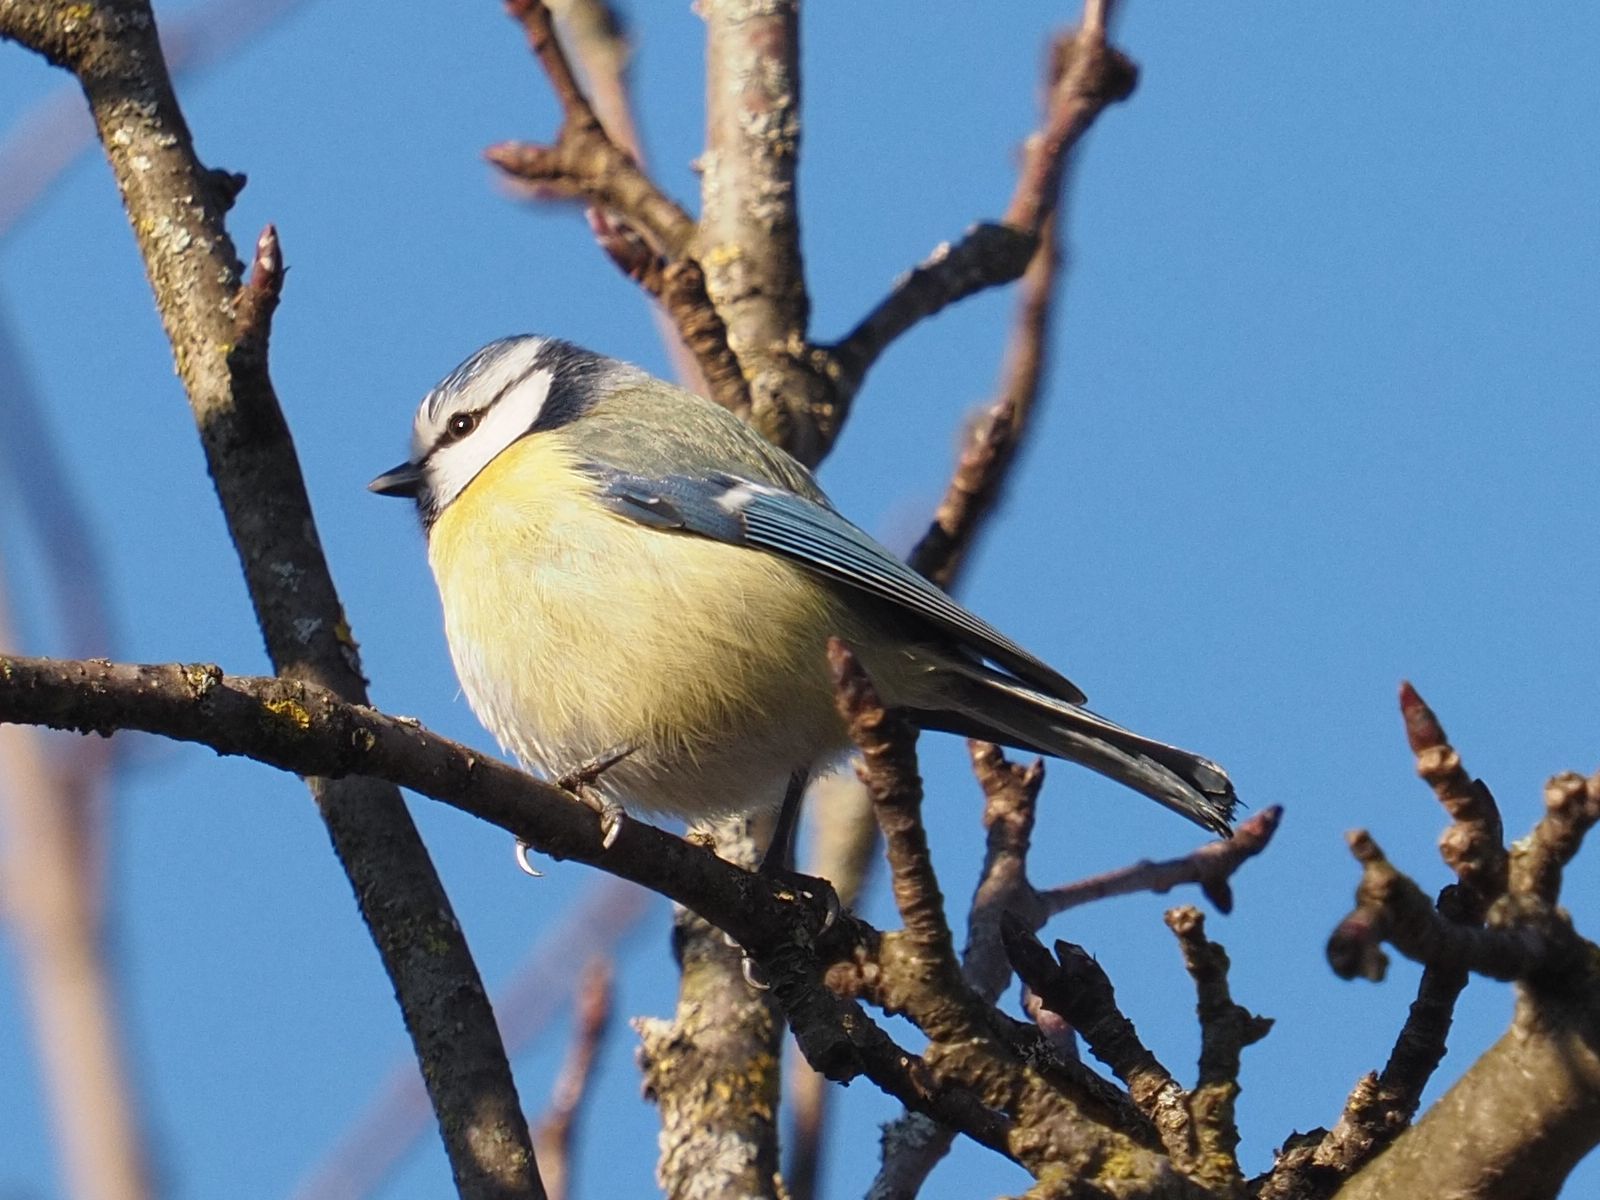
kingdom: Animalia
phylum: Chordata
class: Aves
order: Passeriformes
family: Paridae
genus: Cyanistes
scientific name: Cyanistes caeruleus
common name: Eurasian blue tit
